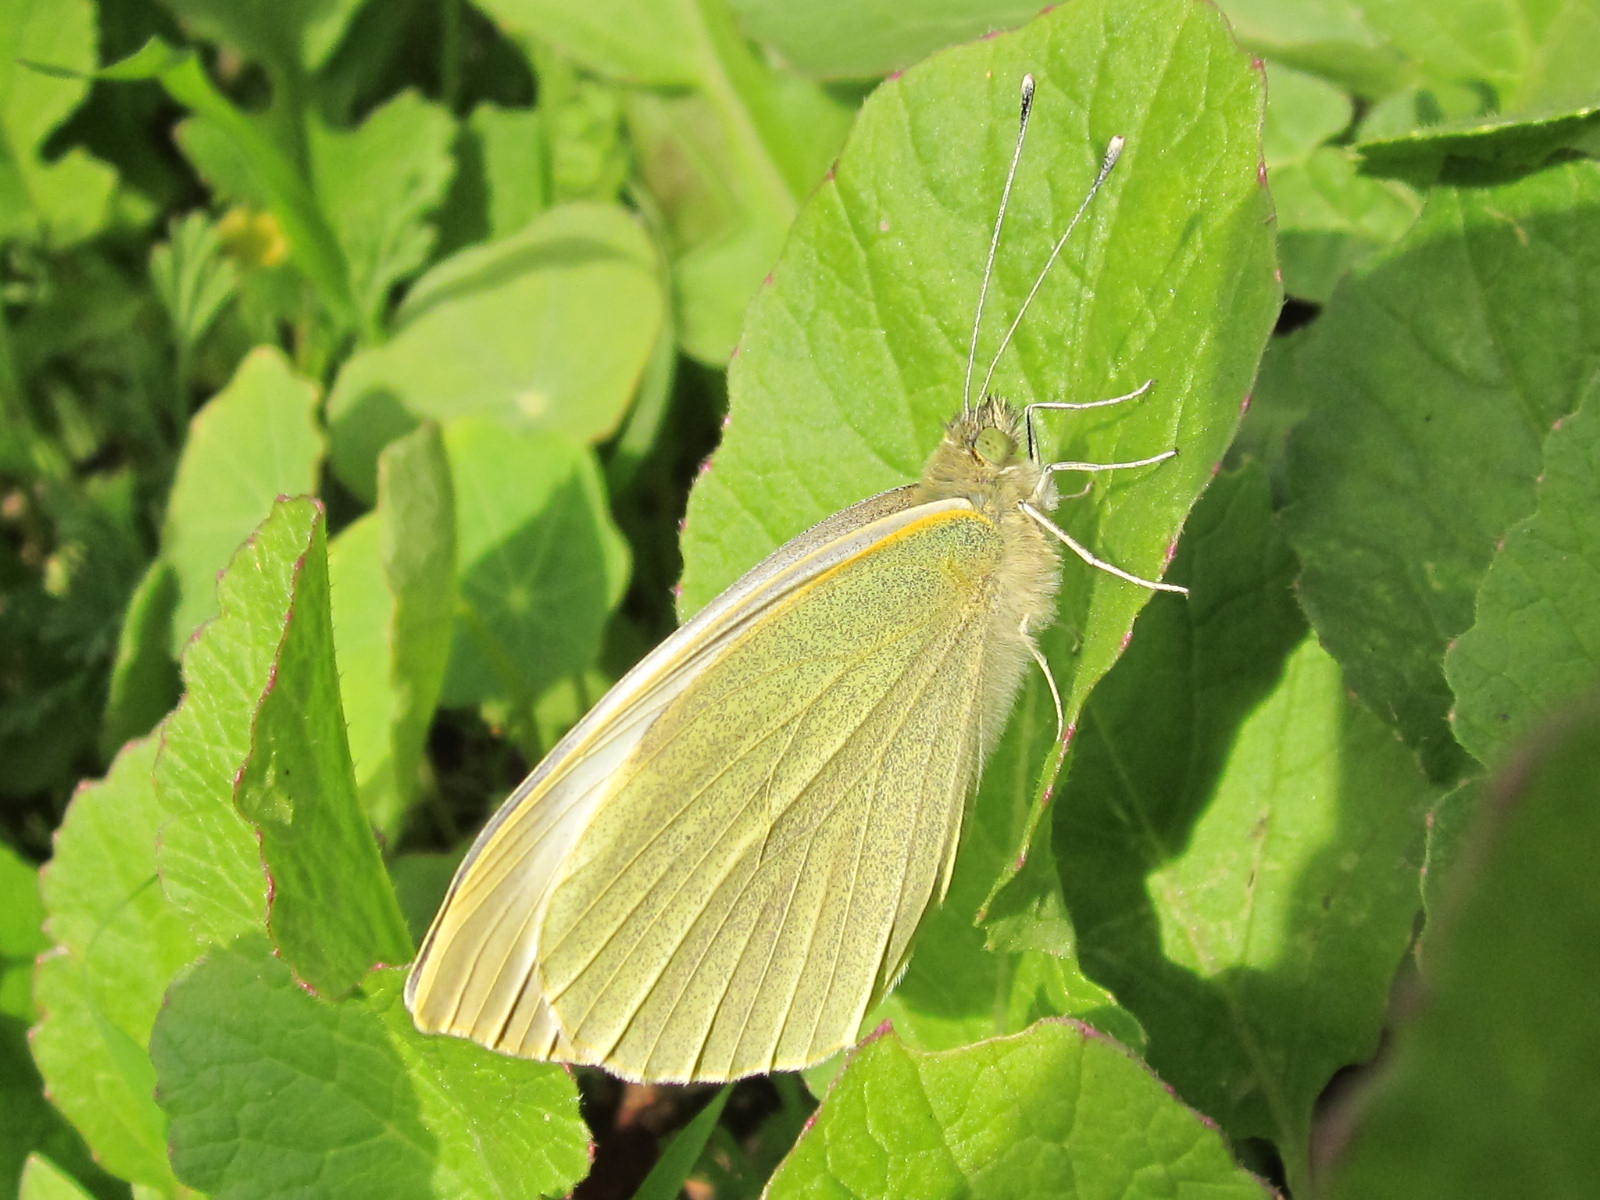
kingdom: Animalia
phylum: Arthropoda
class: Insecta
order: Lepidoptera
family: Pieridae
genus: Pieris
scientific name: Pieris brassicae
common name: Large white
